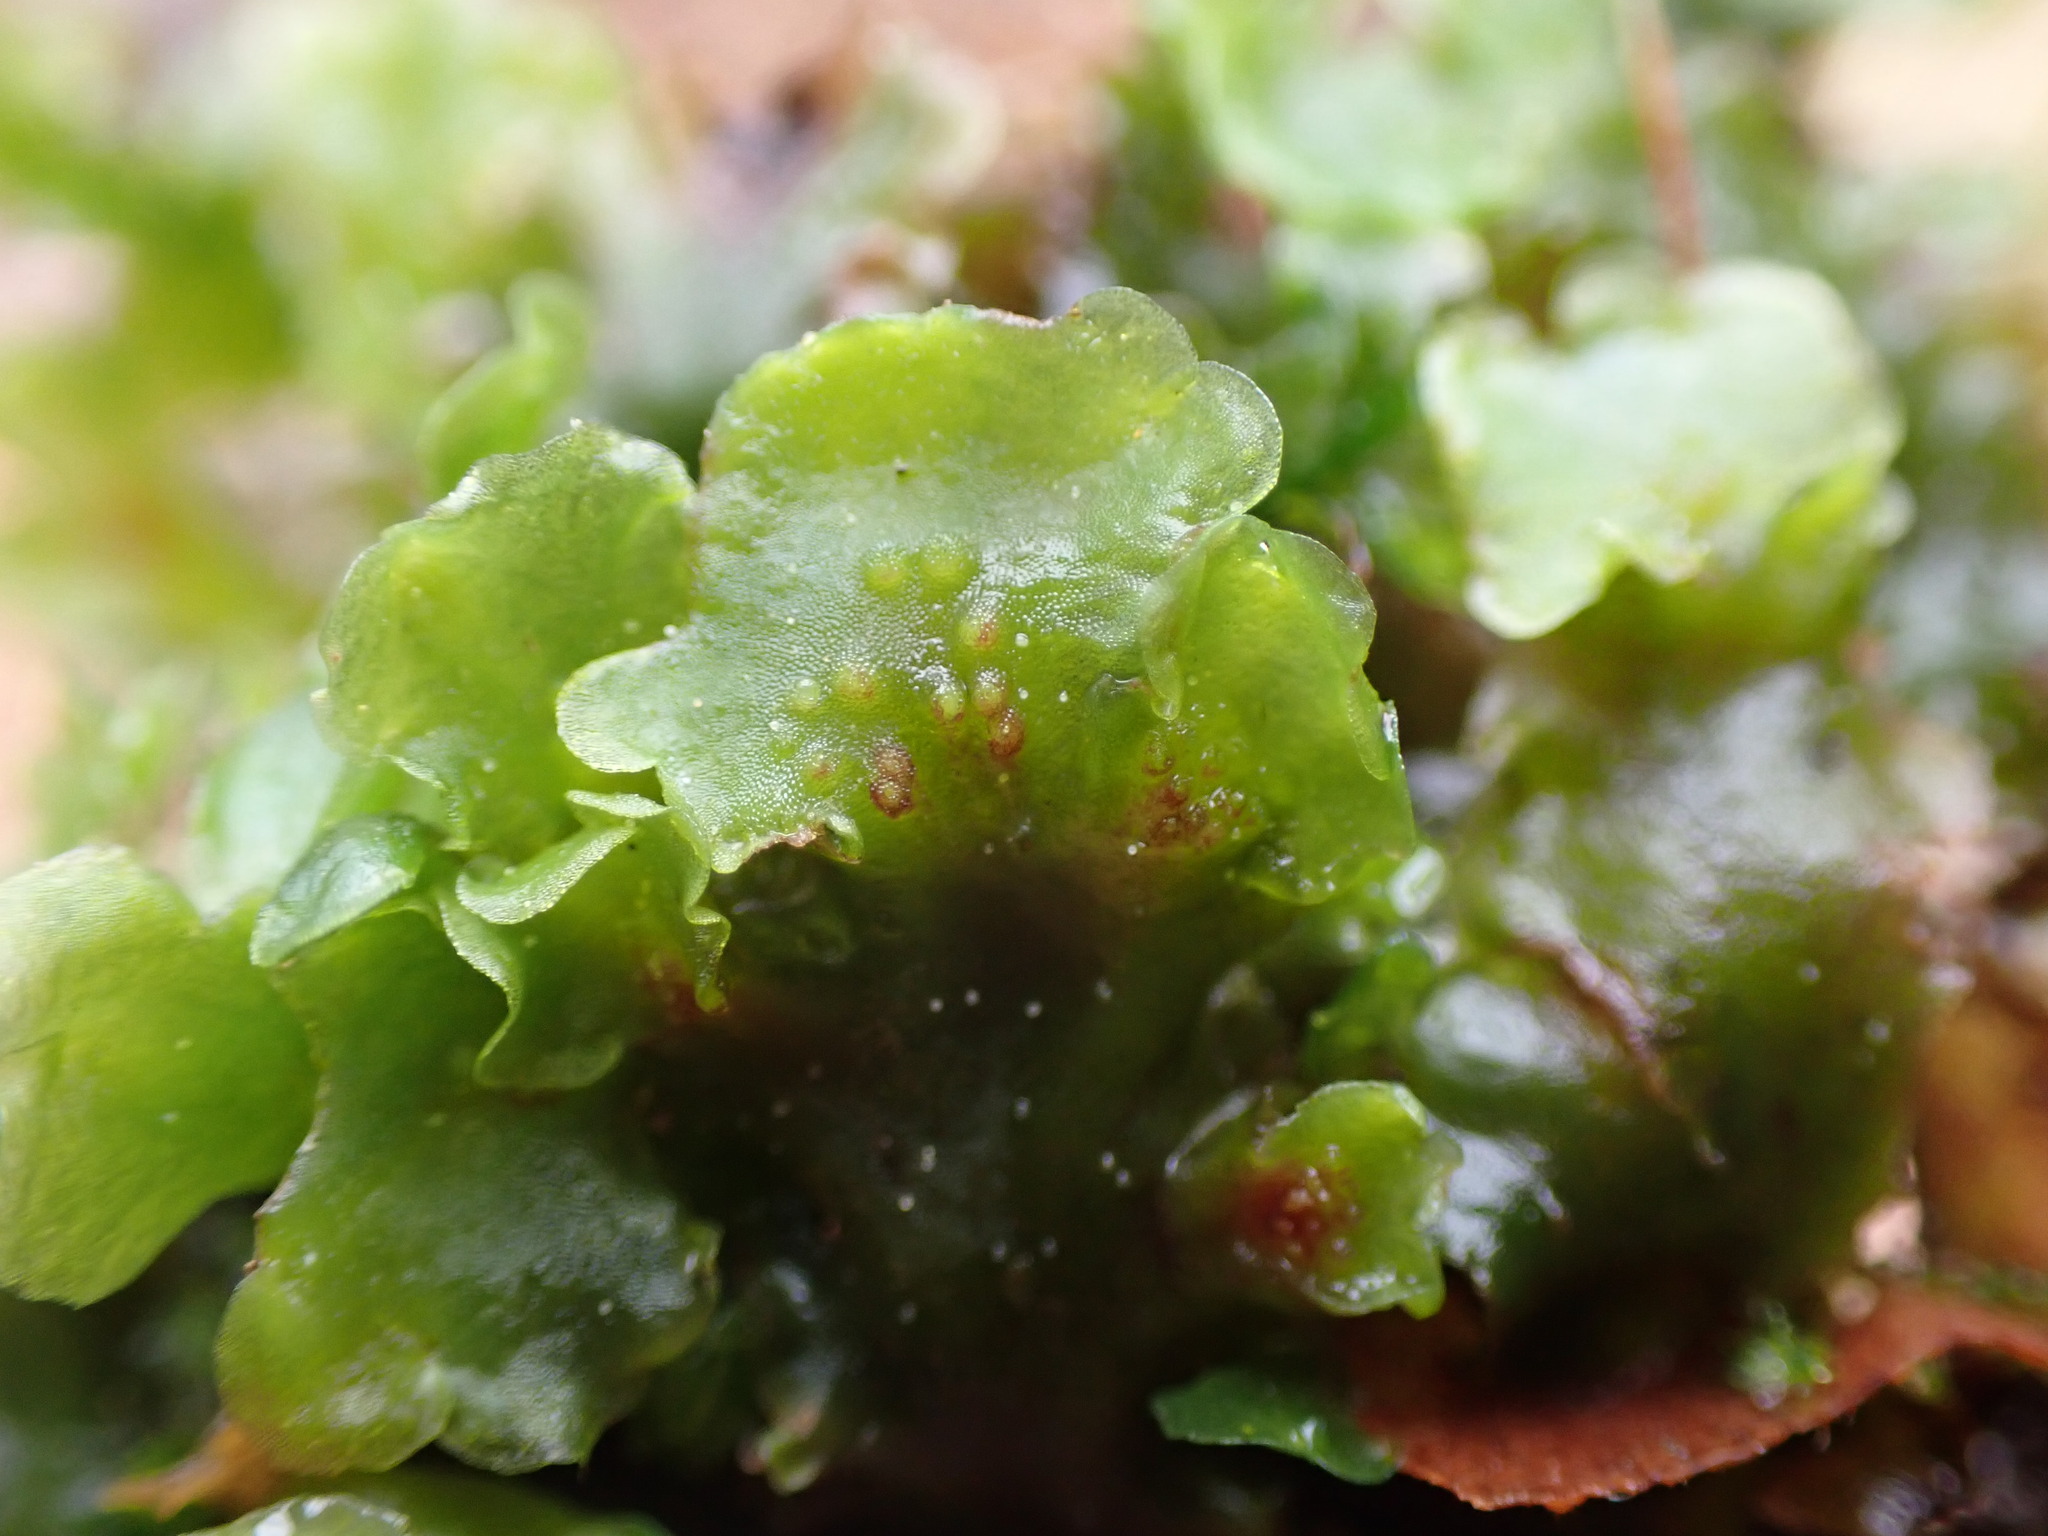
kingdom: Plantae
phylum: Marchantiophyta
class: Jungermanniopsida
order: Pelliales
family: Pelliaceae
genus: Pellia
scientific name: Pellia neesiana
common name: Nees  pellia
